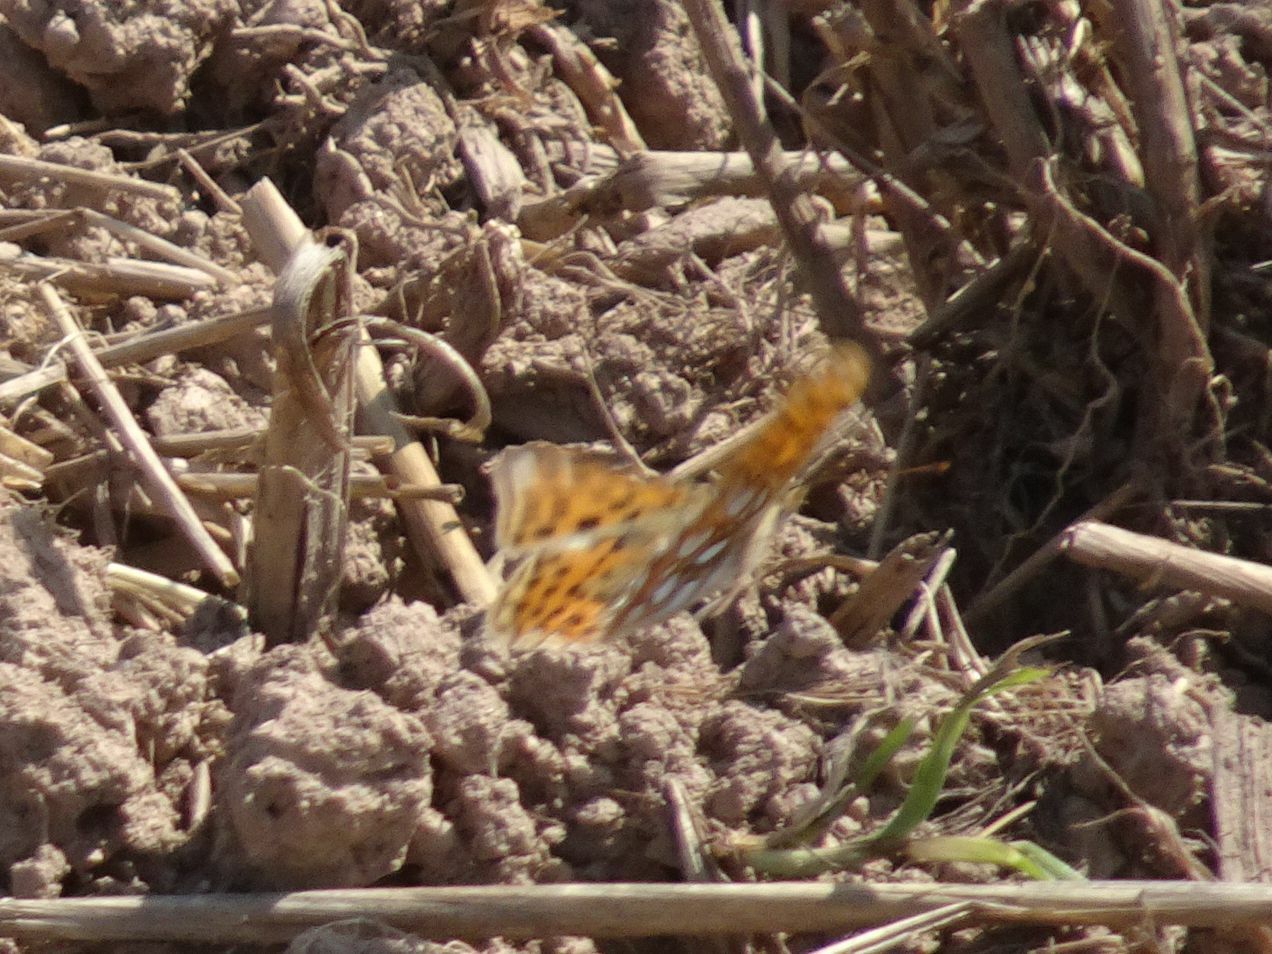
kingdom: Animalia
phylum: Arthropoda
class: Insecta
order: Lepidoptera
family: Nymphalidae
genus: Issoria
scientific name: Issoria lathonia
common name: Queen of spain fritillary
